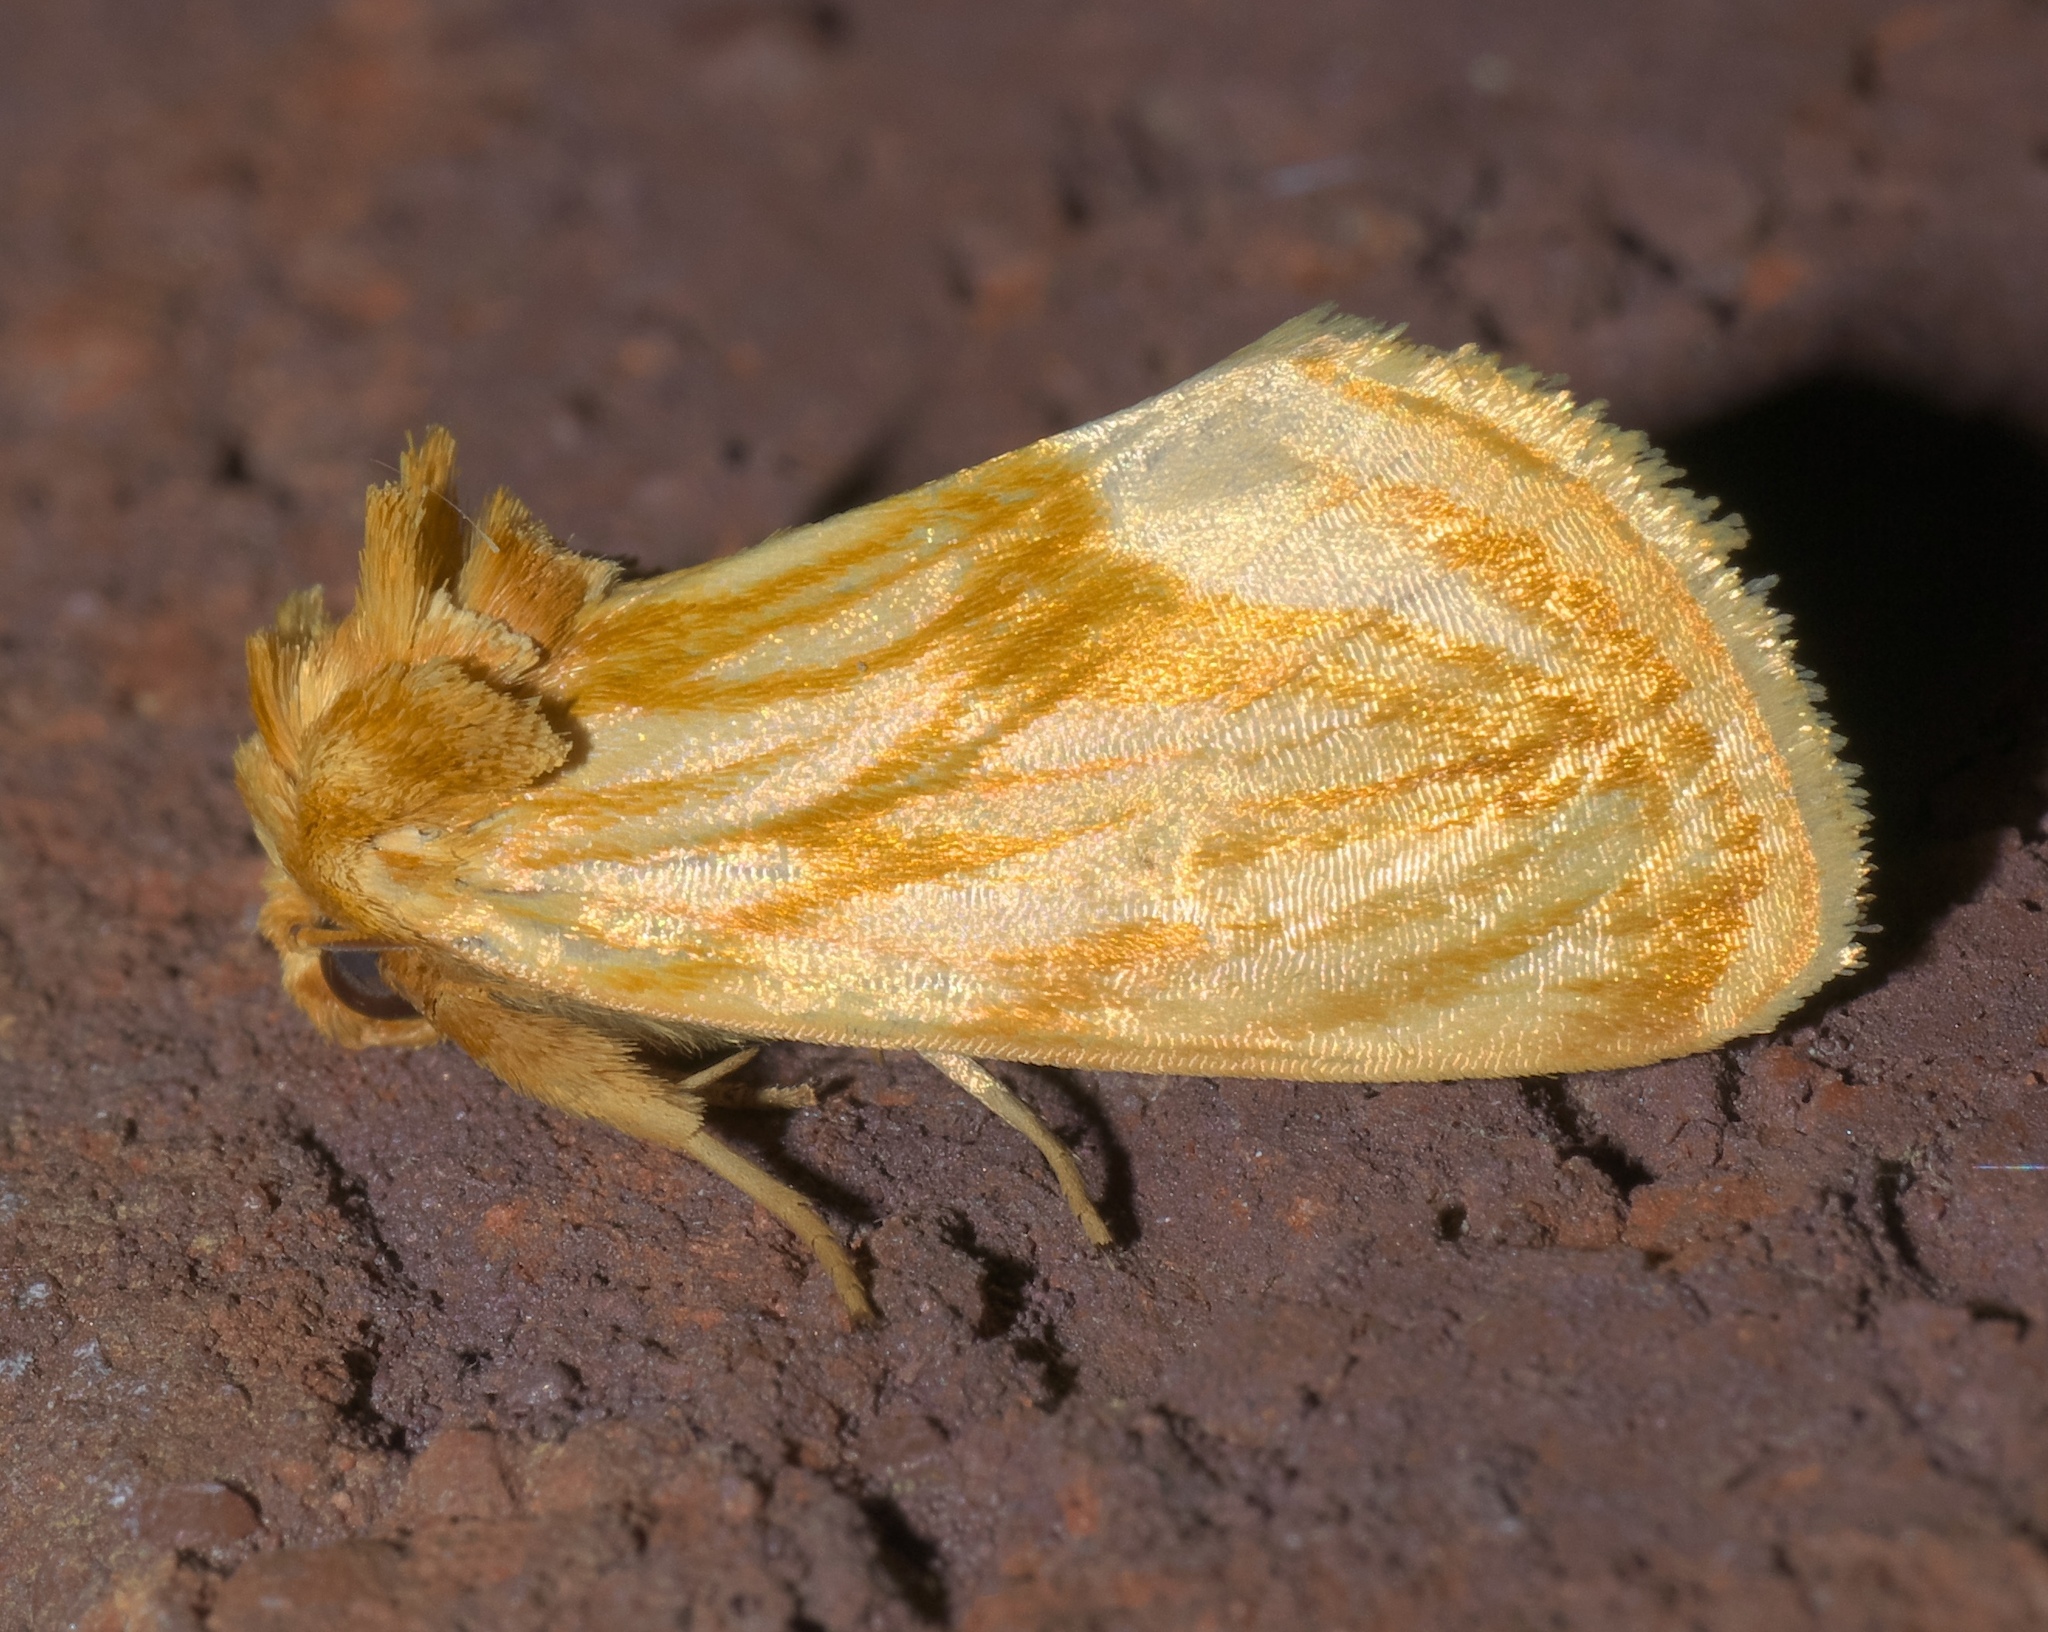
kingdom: Animalia
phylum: Arthropoda
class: Insecta
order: Lepidoptera
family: Noctuidae
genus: Cirrhophanus
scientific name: Cirrhophanus triangulifer
